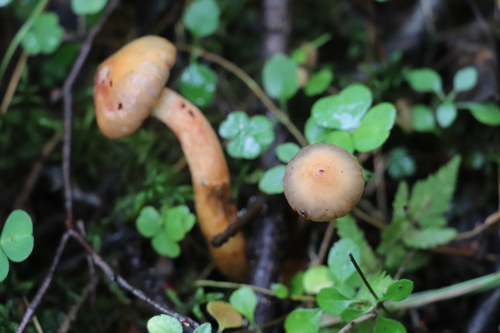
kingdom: Fungi
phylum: Basidiomycota
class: Agaricomycetes
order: Boletales
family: Gomphidiaceae
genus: Chroogomphus
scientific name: Chroogomphus rutilus
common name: Copper spike
